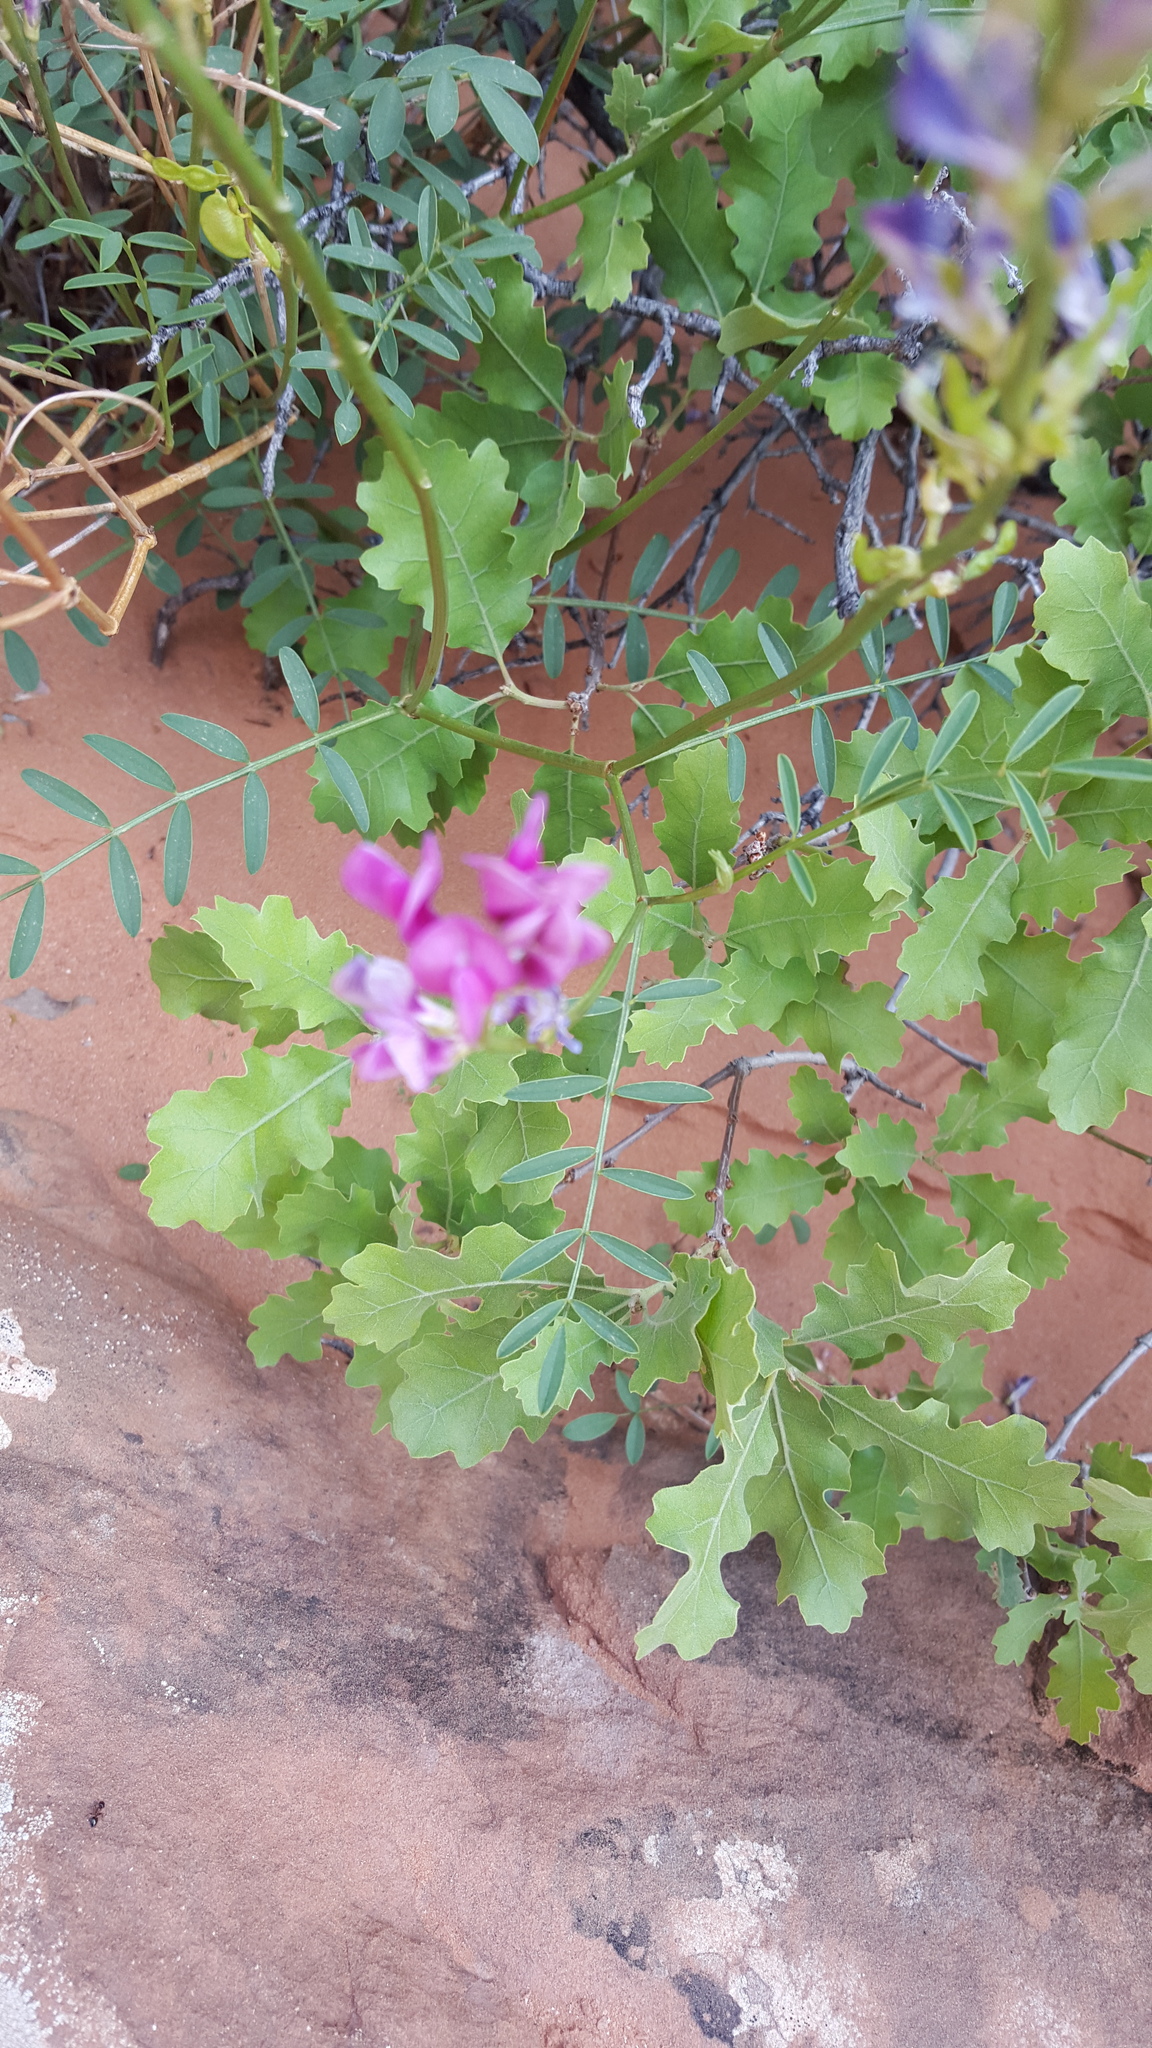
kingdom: Plantae
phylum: Tracheophyta
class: Magnoliopsida
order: Fabales
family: Fabaceae
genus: Hedysarum
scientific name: Hedysarum boreale
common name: Northern sweet-vetch
